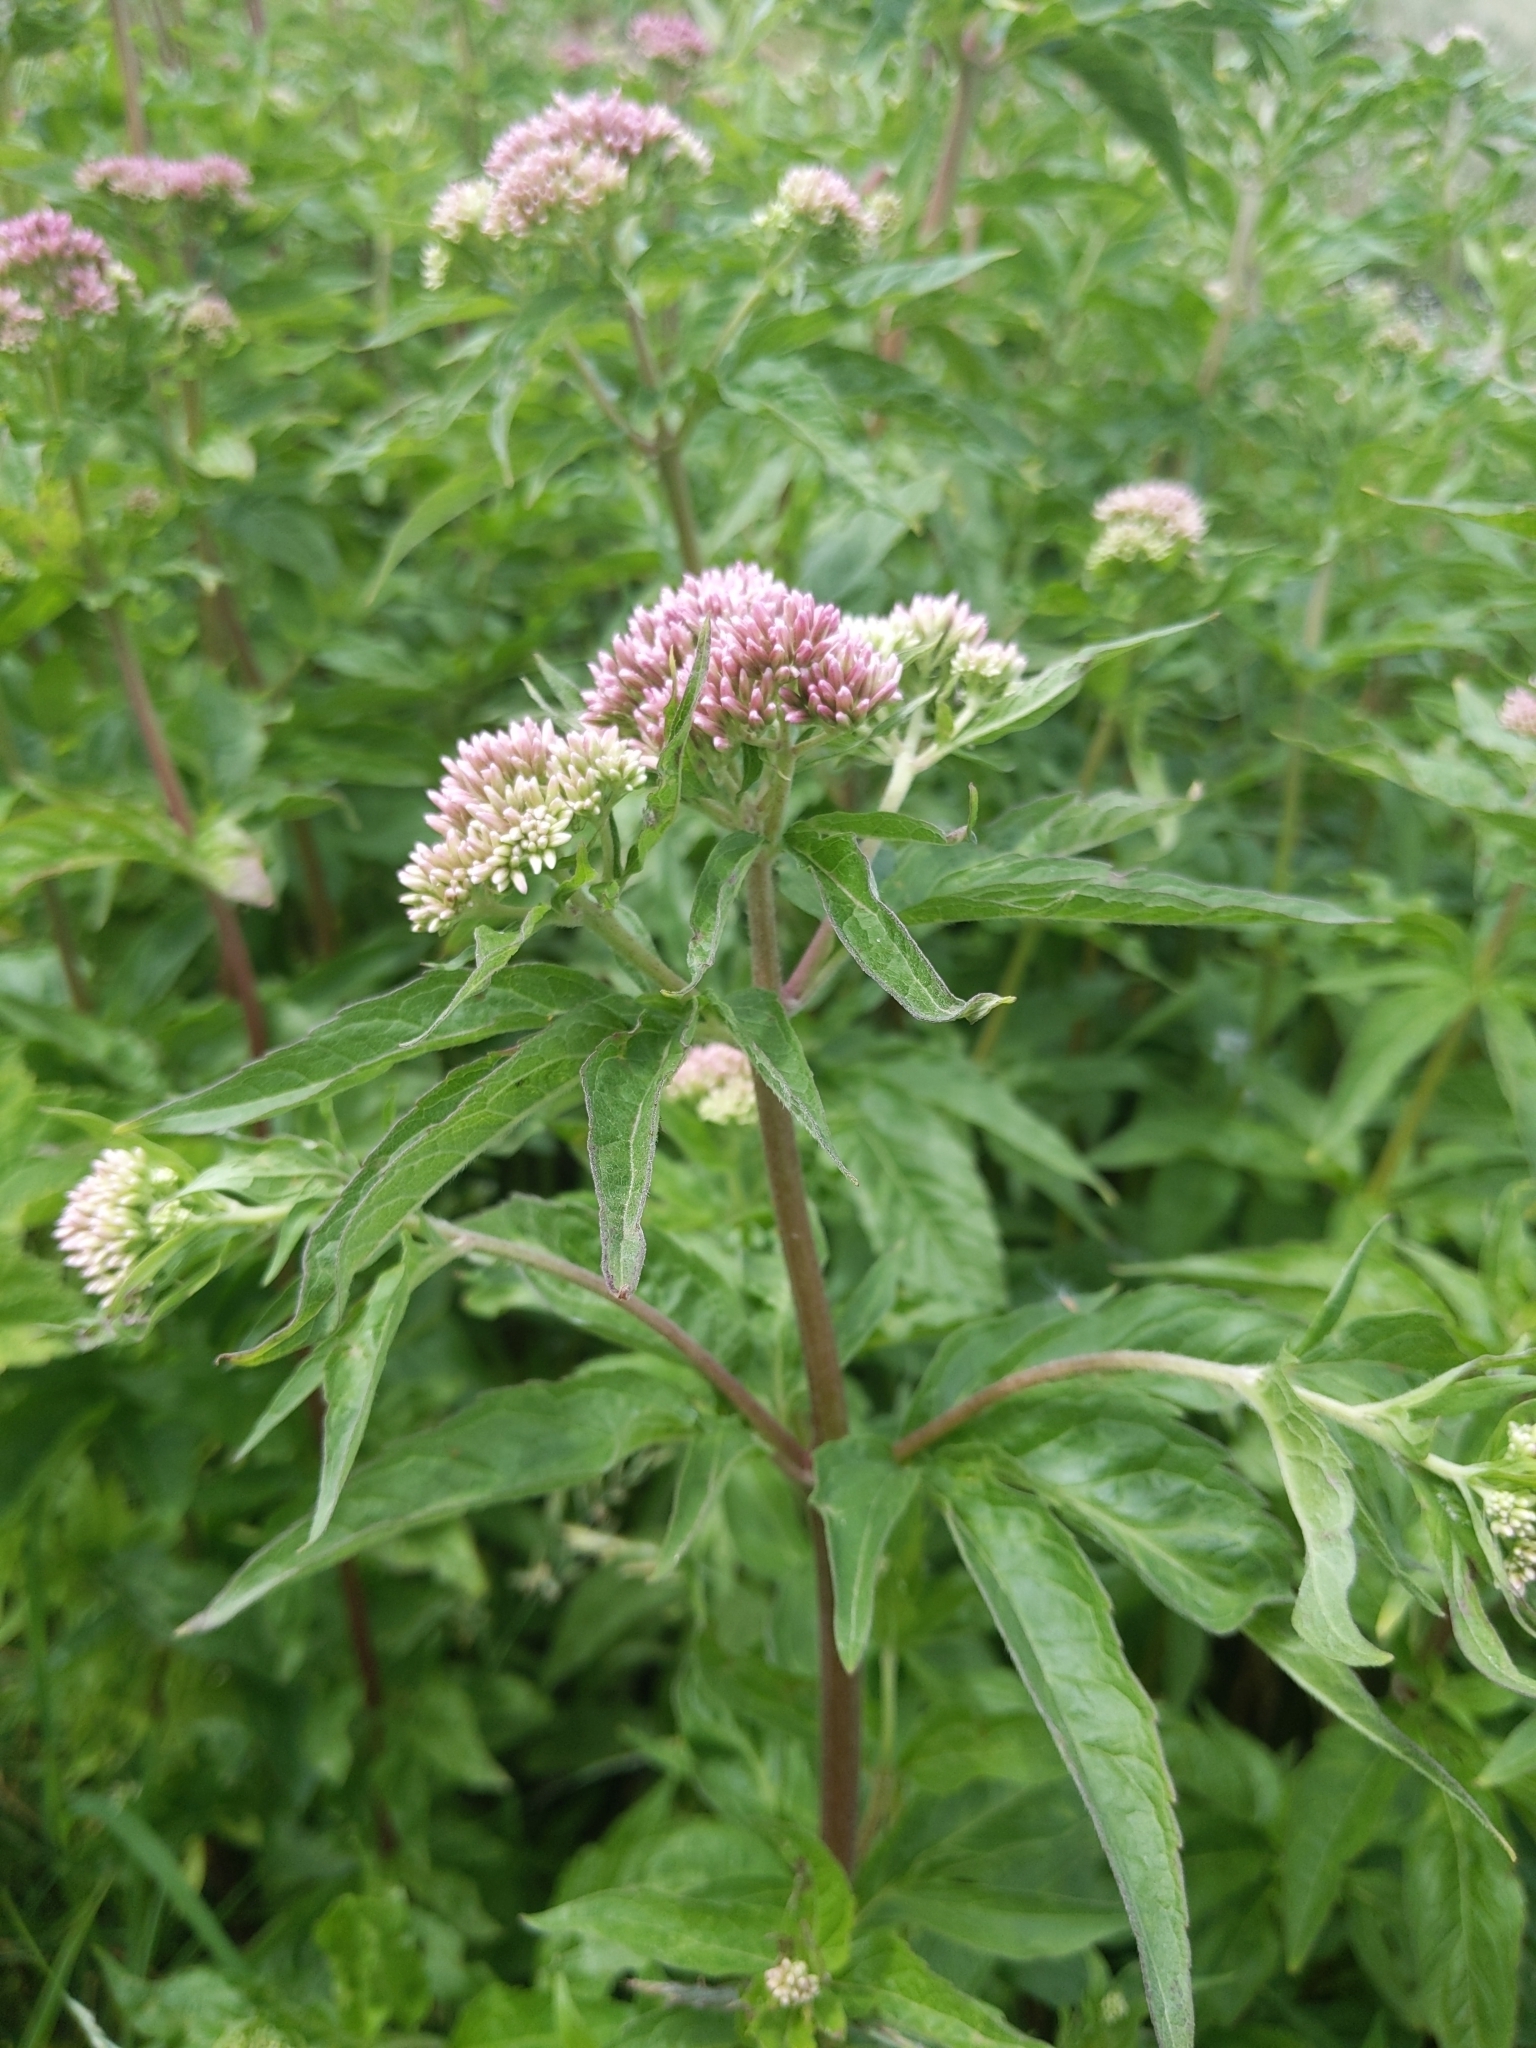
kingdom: Plantae
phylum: Tracheophyta
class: Magnoliopsida
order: Asterales
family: Asteraceae
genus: Eupatorium
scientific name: Eupatorium cannabinum
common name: Hemp-agrimony
